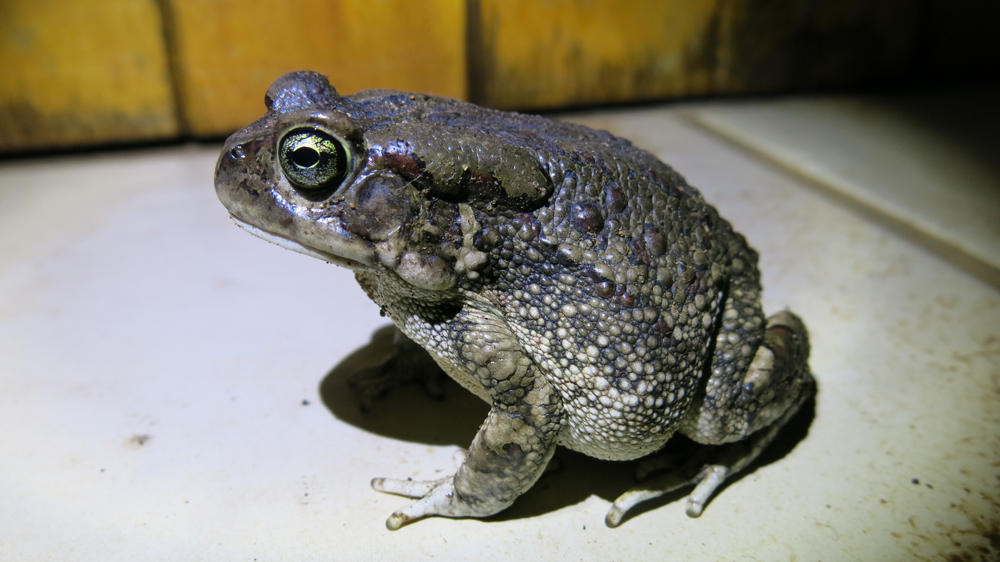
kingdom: Animalia
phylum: Chordata
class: Amphibia
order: Anura
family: Bufonidae
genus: Sclerophrys
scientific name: Sclerophrys garmani
